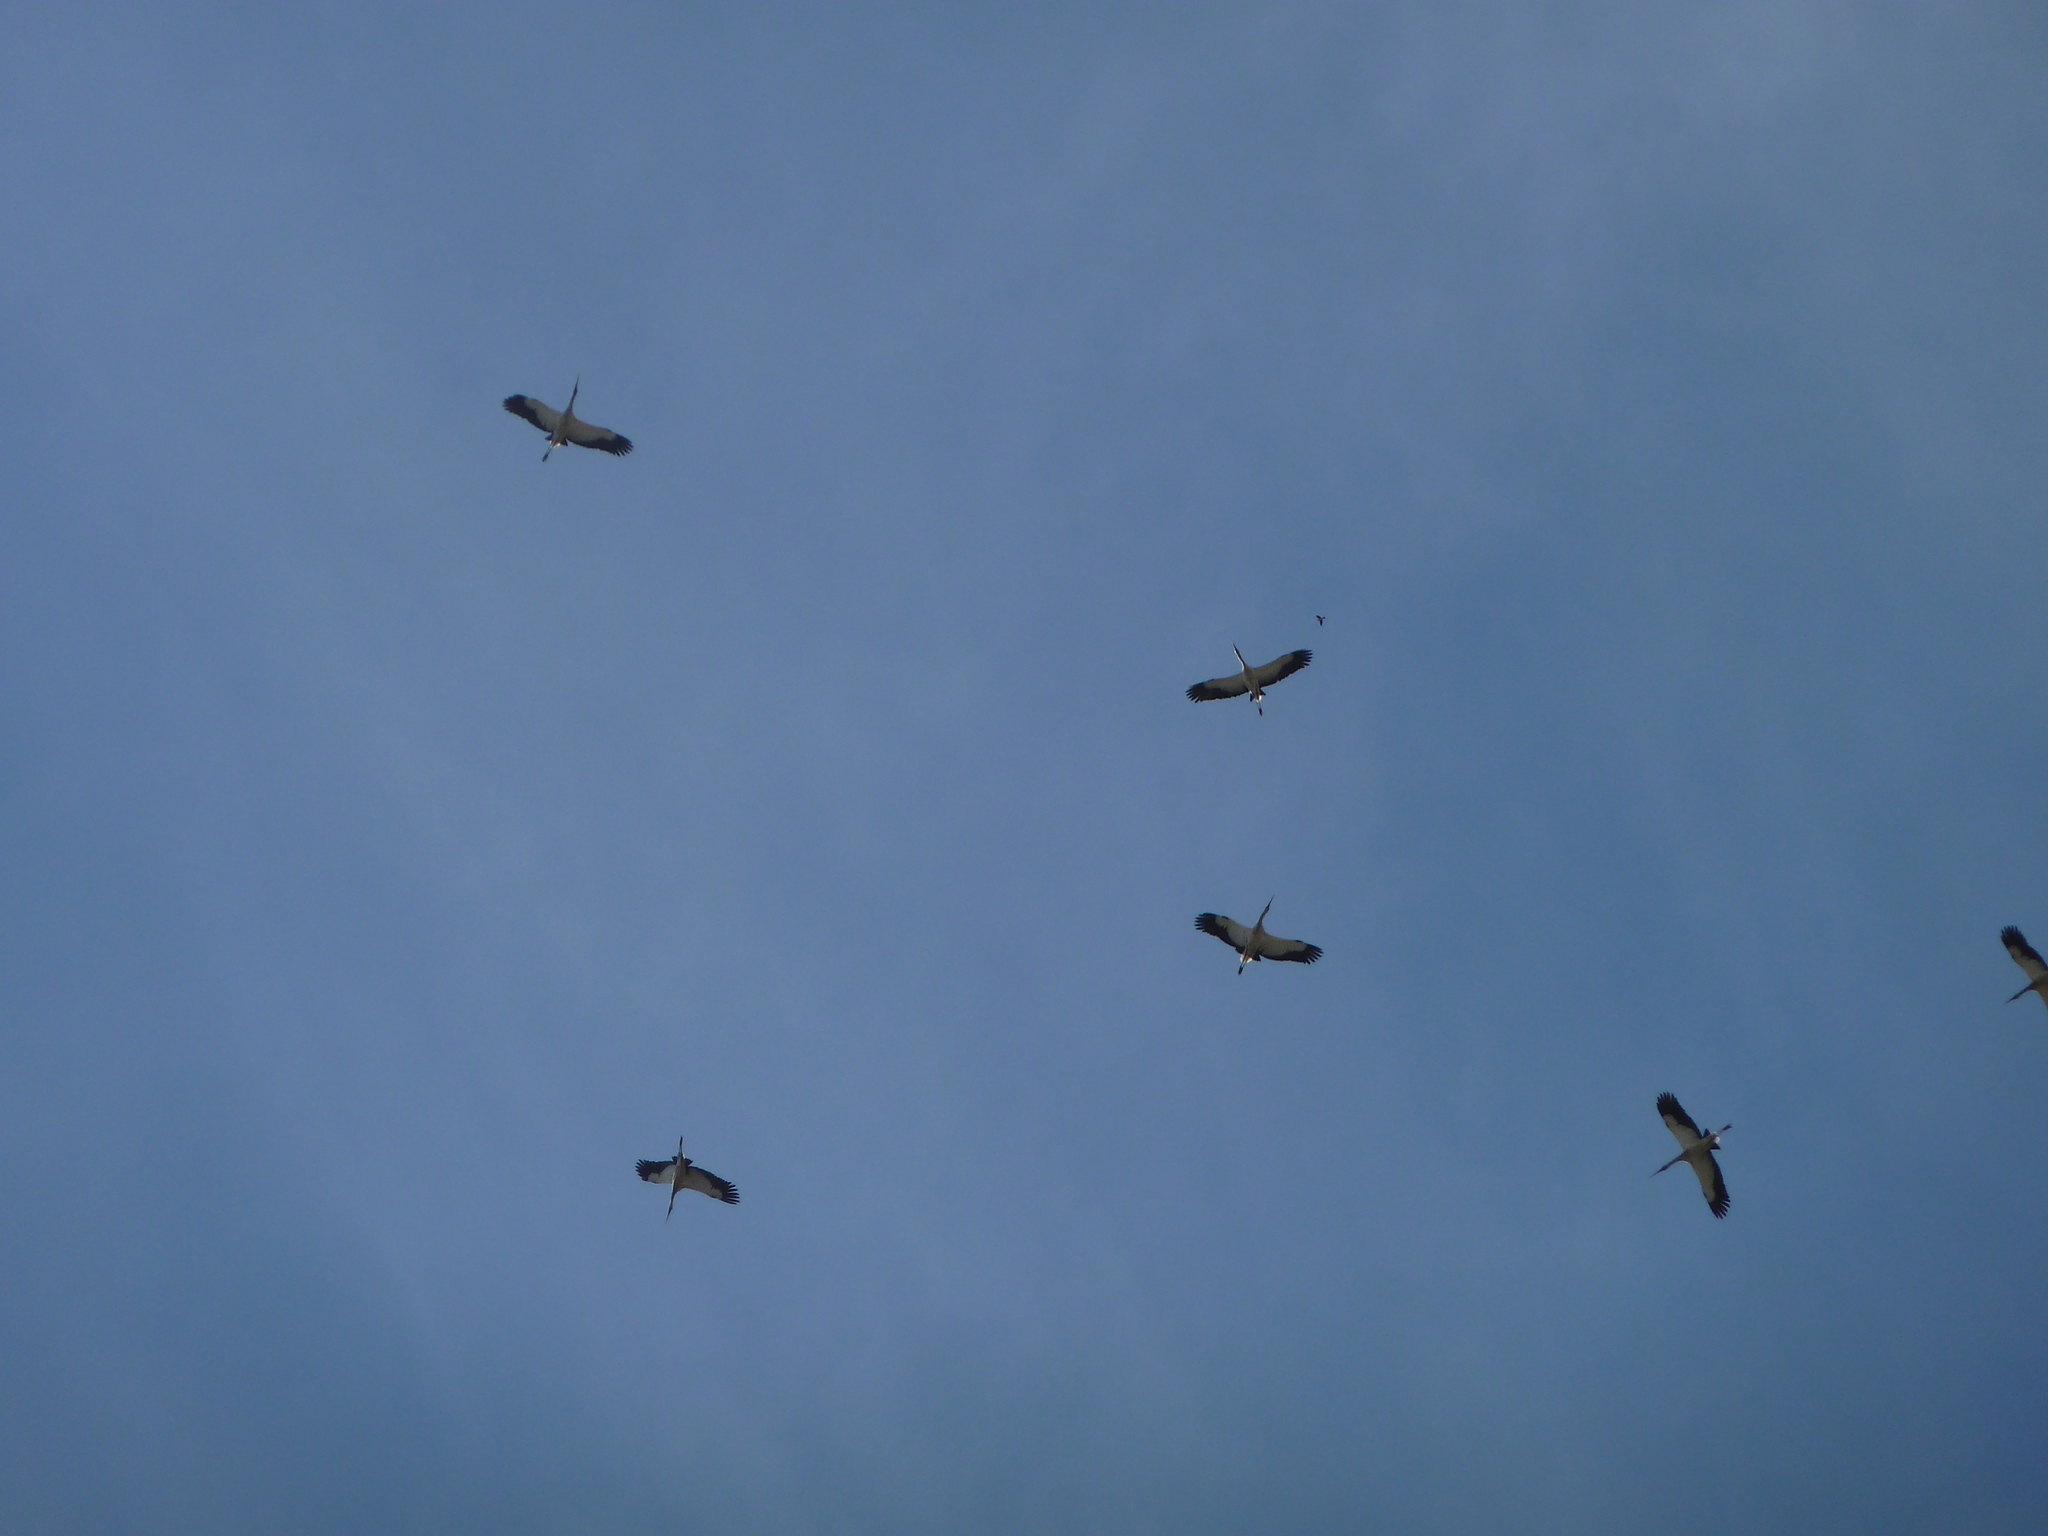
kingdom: Animalia
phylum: Chordata
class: Aves
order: Ciconiiformes
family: Ciconiidae
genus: Ciconia
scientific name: Ciconia maguari
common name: Maguari stork
